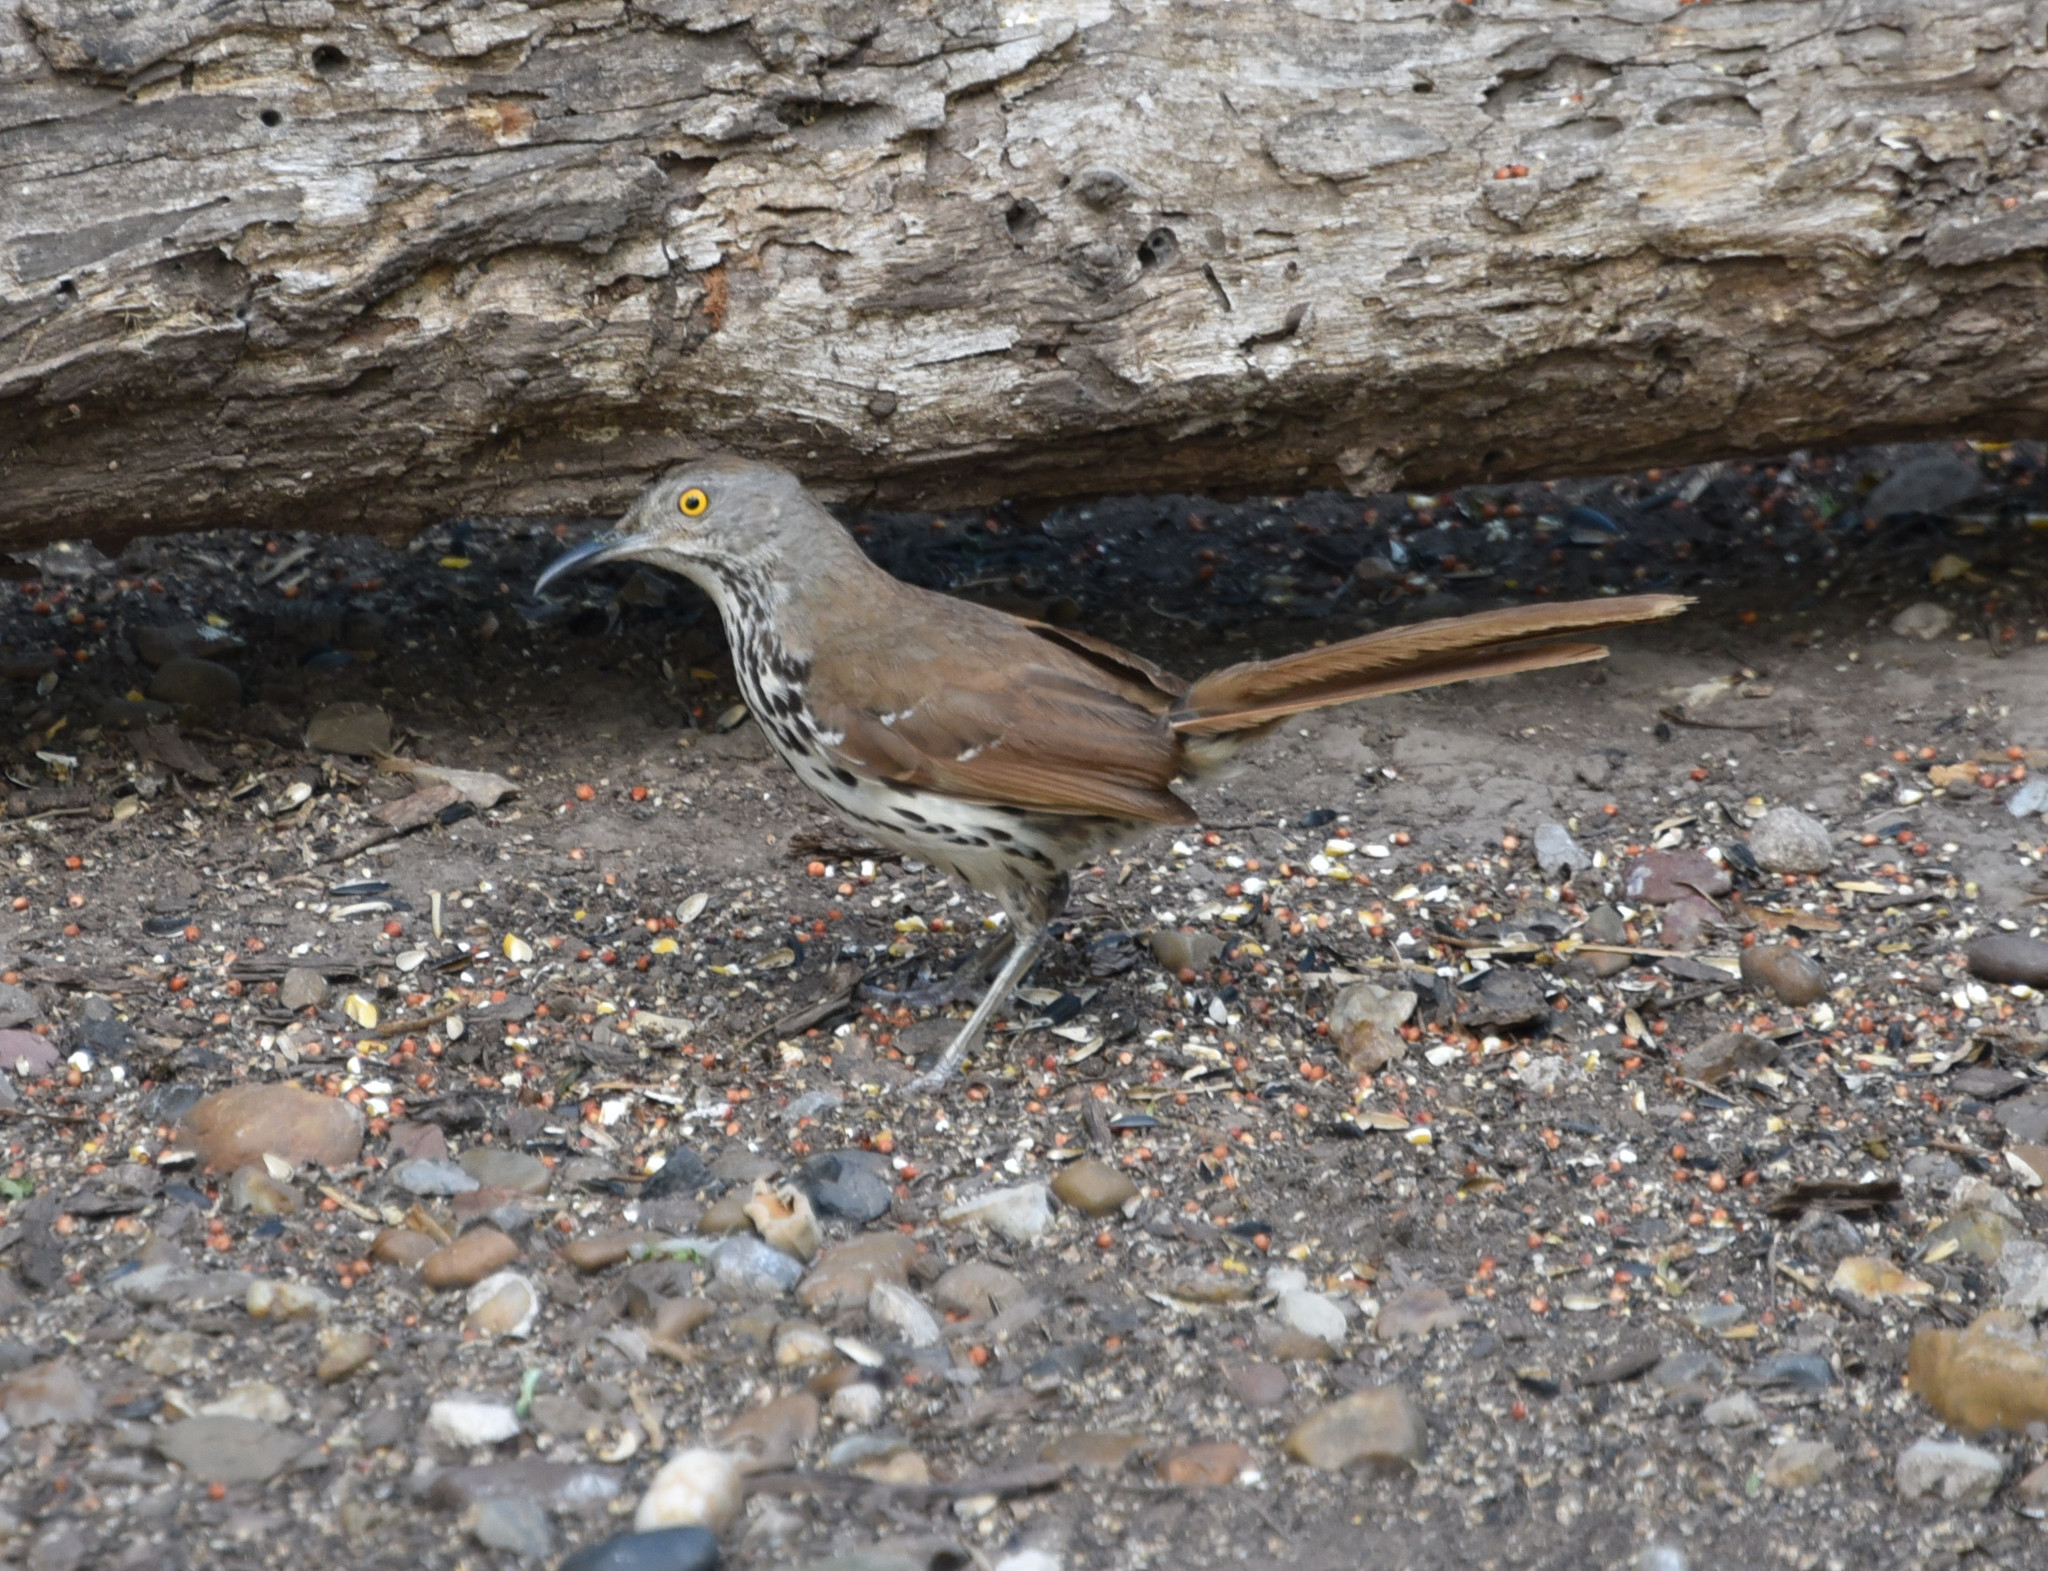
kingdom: Animalia
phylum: Chordata
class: Aves
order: Passeriformes
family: Mimidae
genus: Toxostoma
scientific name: Toxostoma longirostre
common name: Long-billed thrasher
